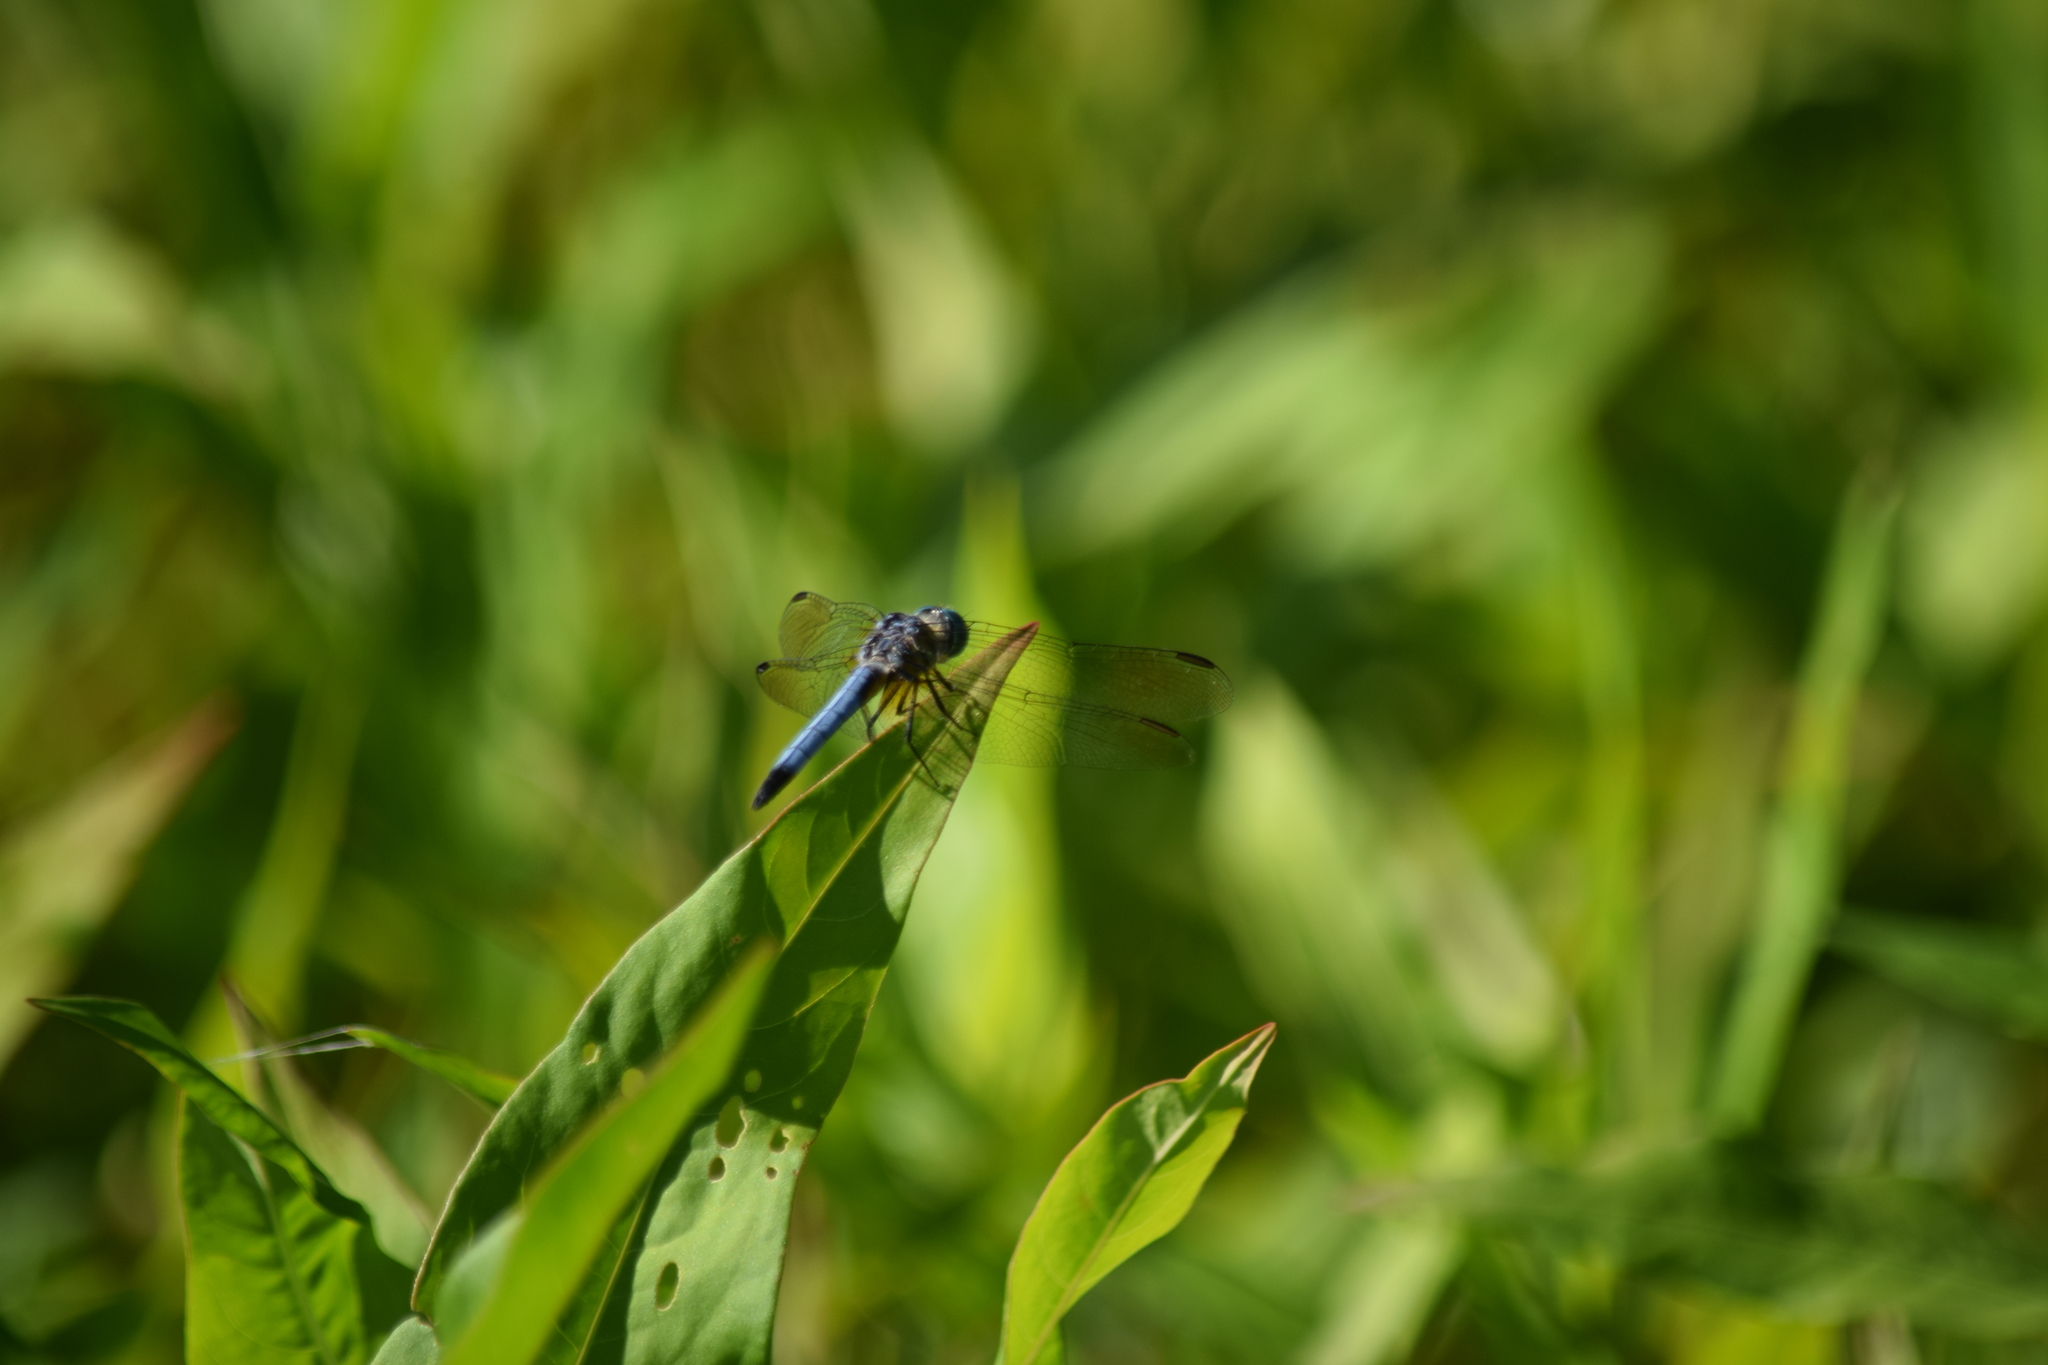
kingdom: Animalia
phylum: Arthropoda
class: Insecta
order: Odonata
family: Libellulidae
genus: Pachydiplax
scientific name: Pachydiplax longipennis
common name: Blue dasher
